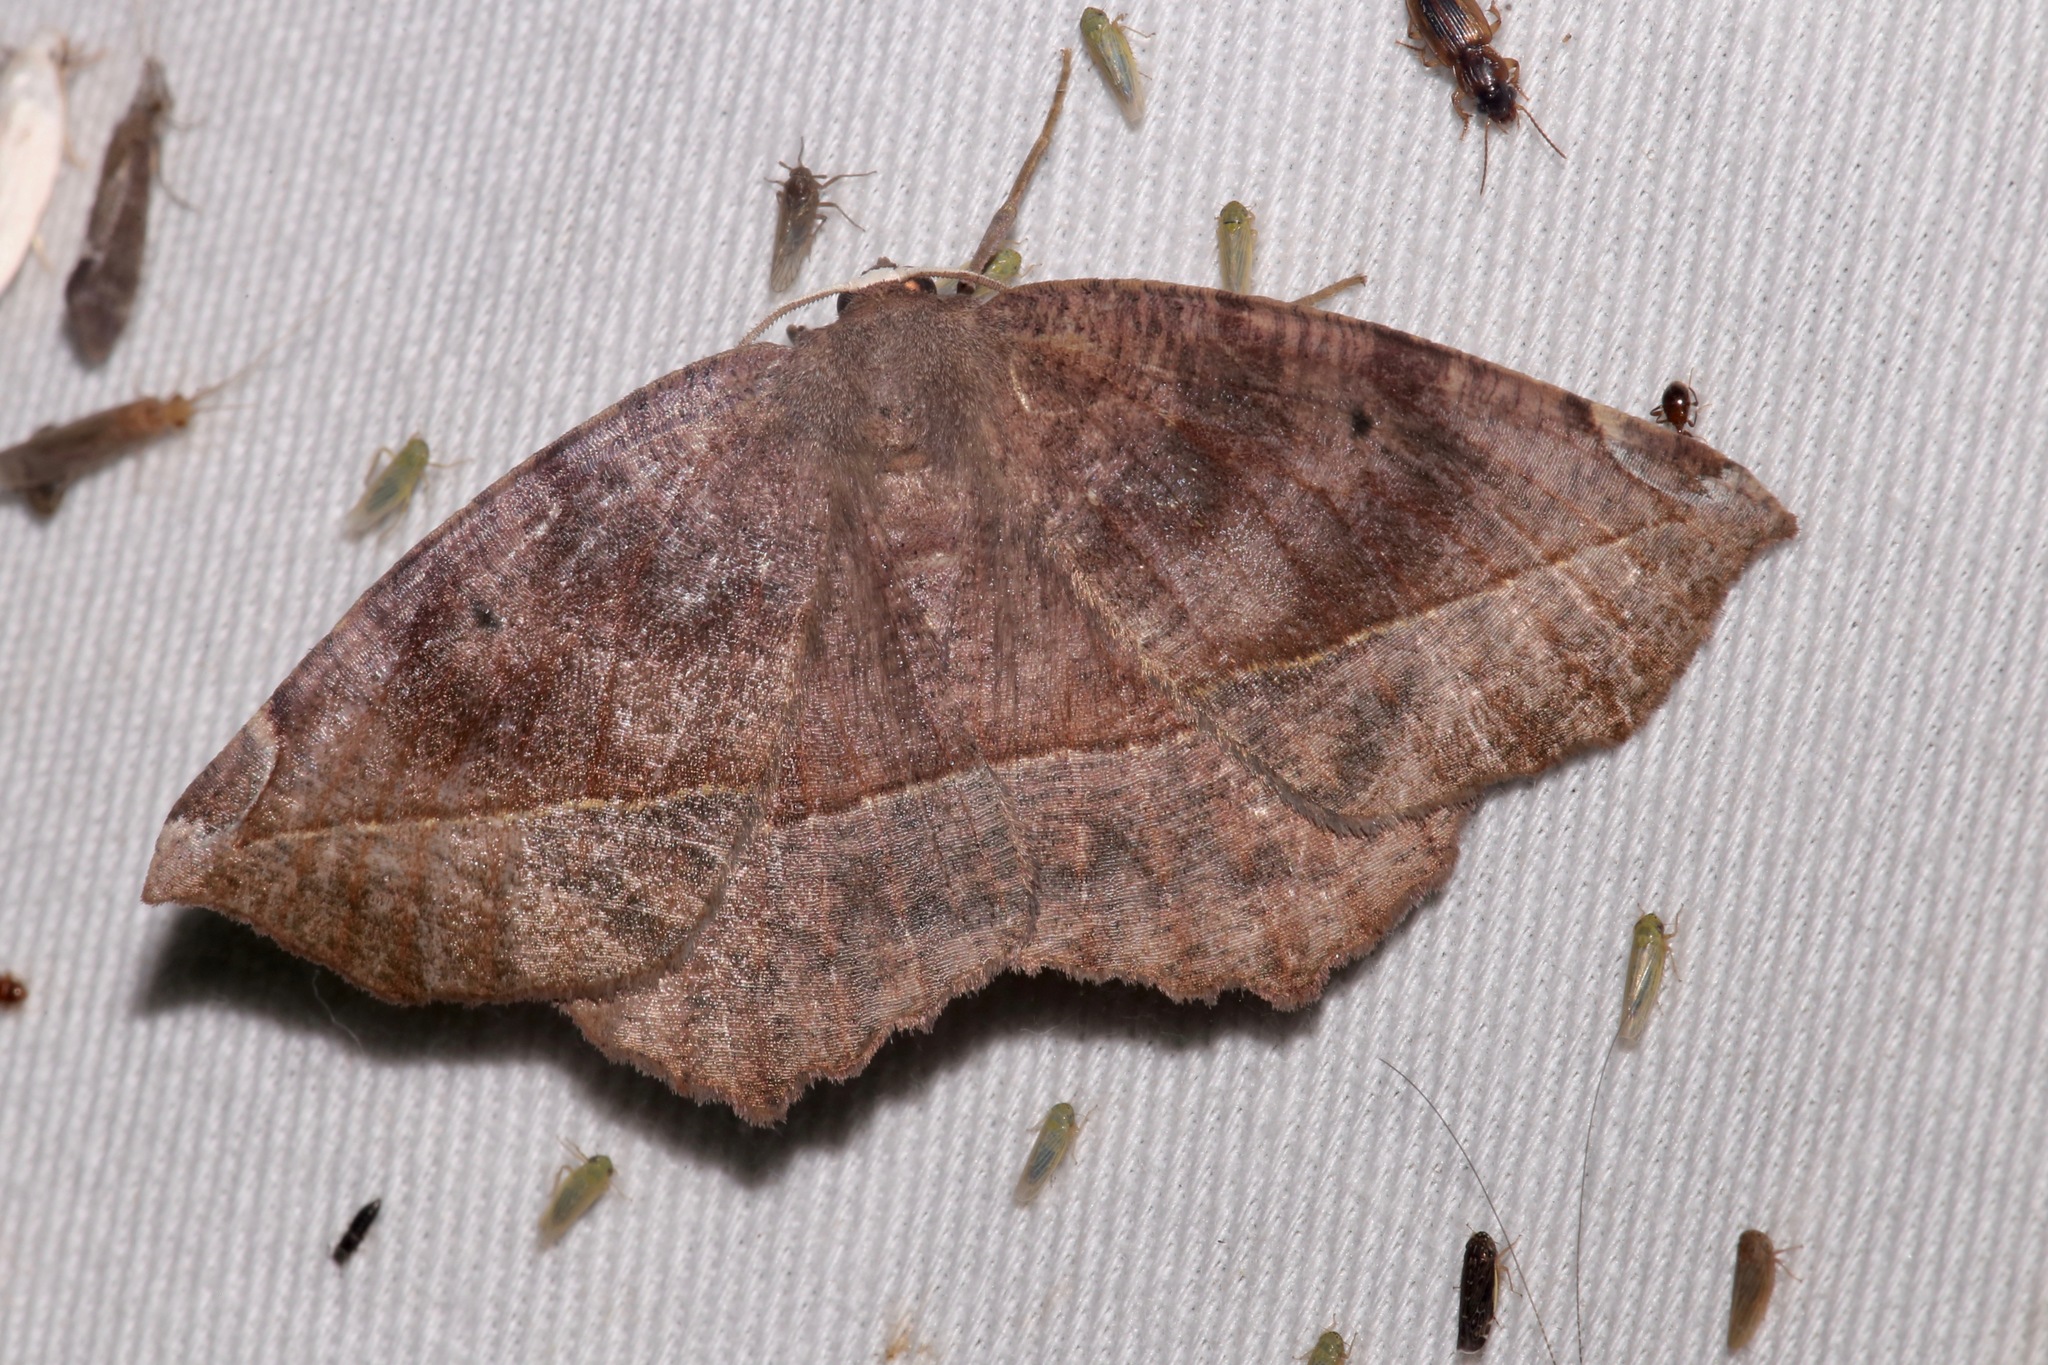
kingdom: Animalia
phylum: Arthropoda
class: Insecta
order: Lepidoptera
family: Geometridae
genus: Eutrapela
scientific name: Eutrapela clemataria
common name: Curved-toothed geometer
